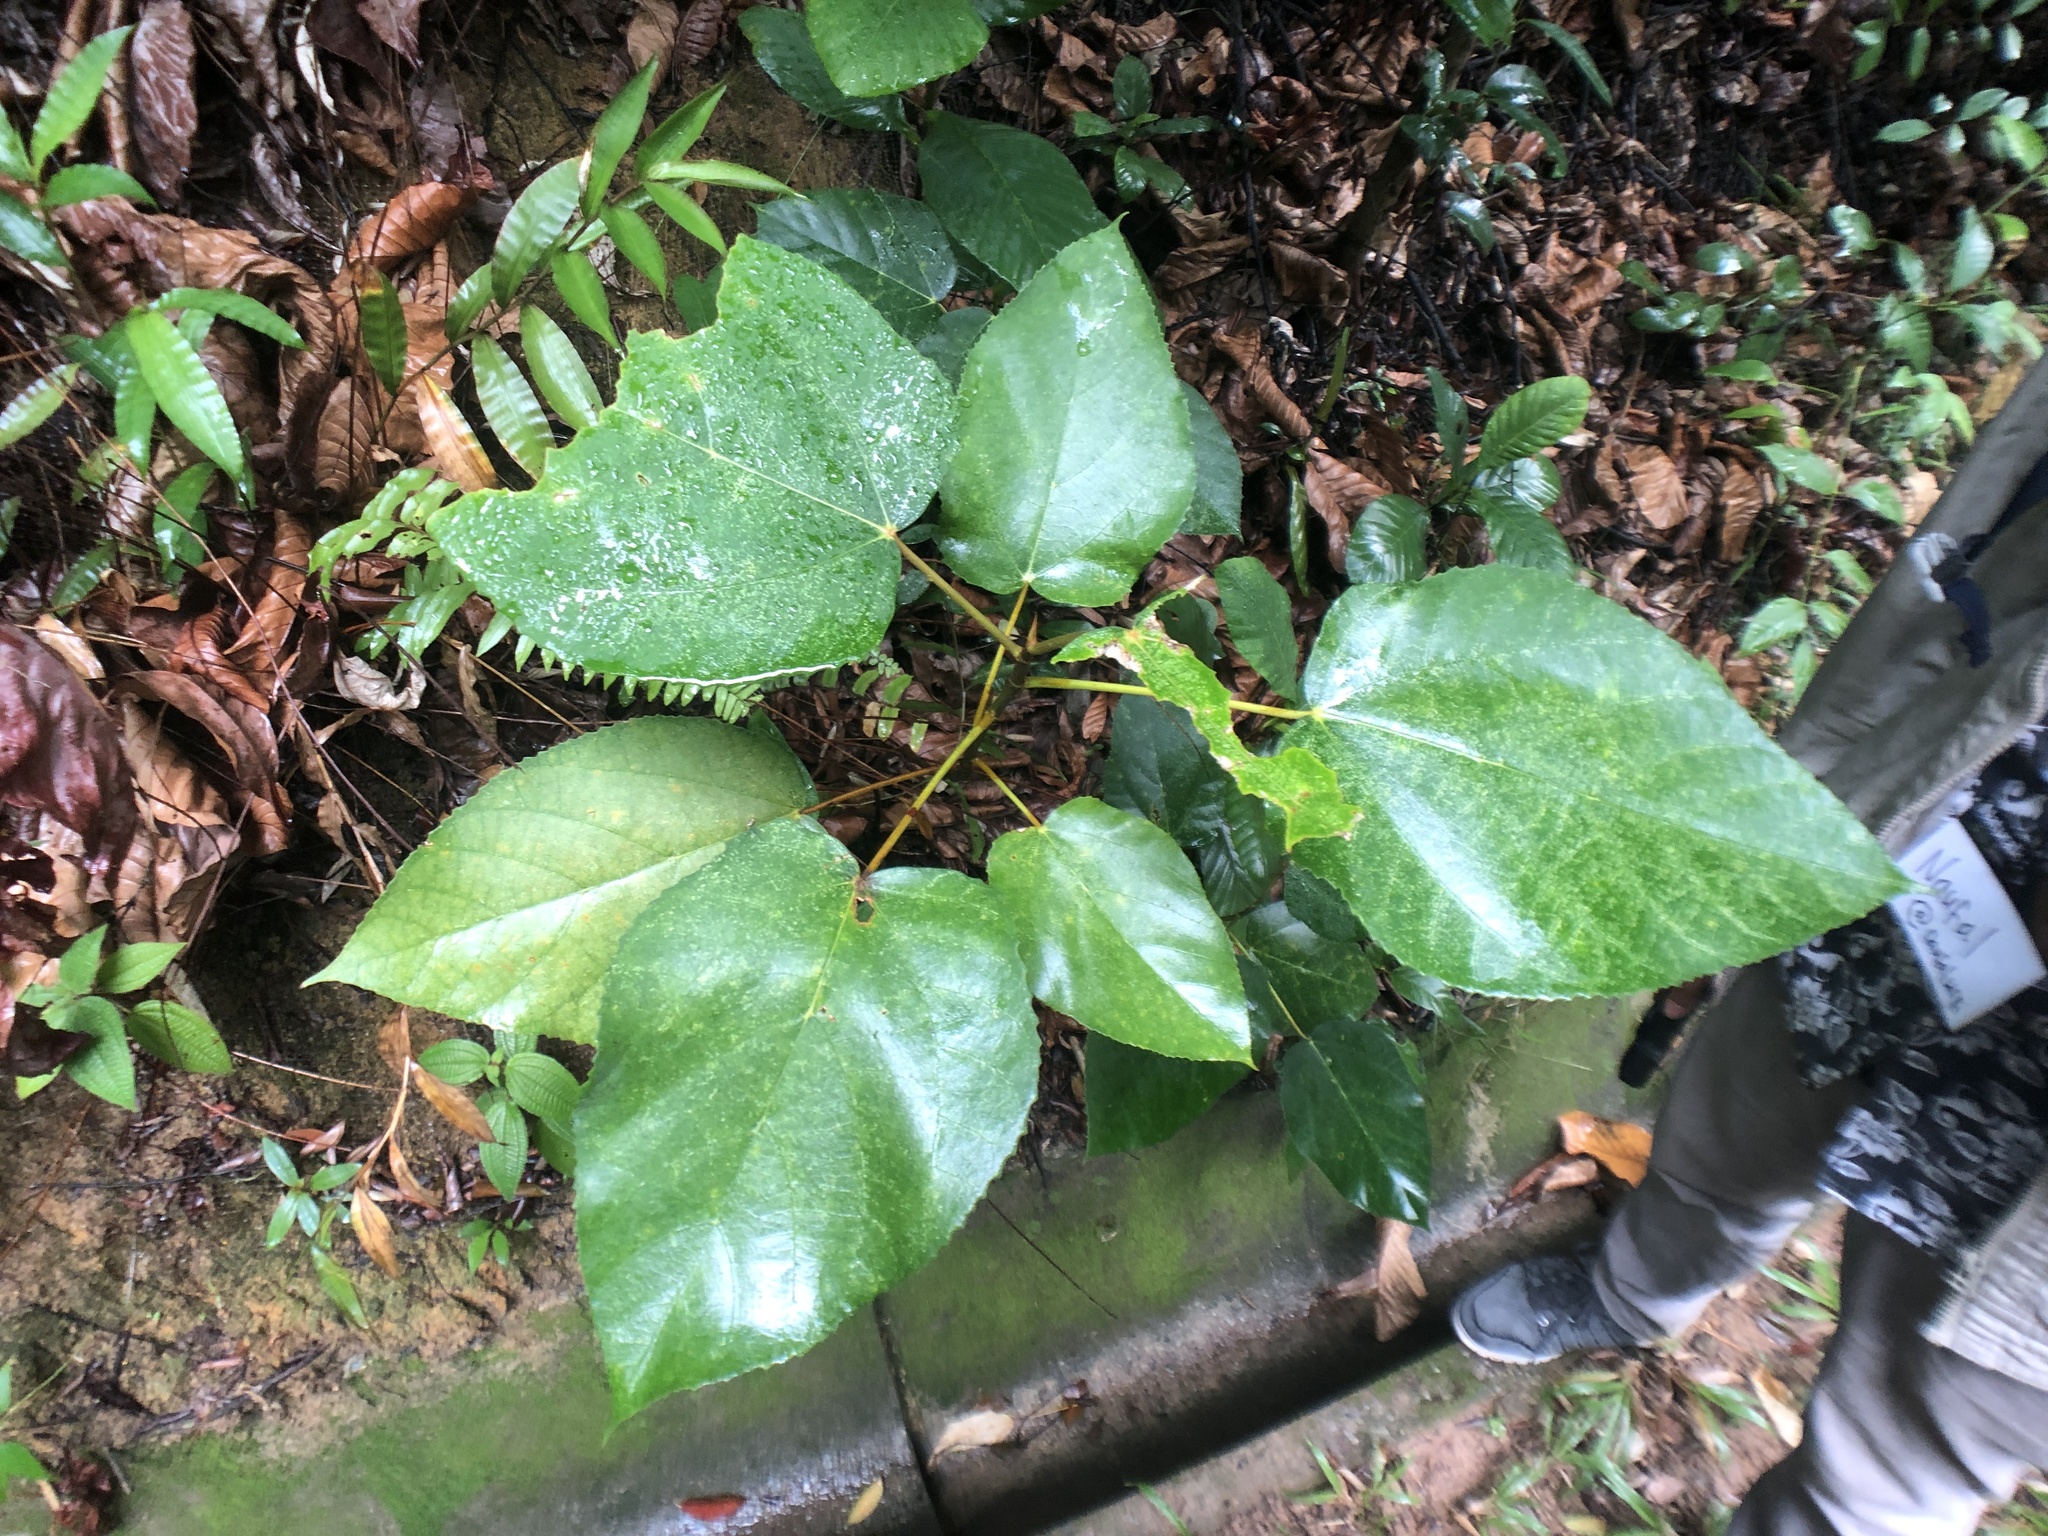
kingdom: Plantae
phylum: Tracheophyta
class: Magnoliopsida
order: Rosales
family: Moraceae
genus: Ficus
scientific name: Ficus grossularioides
